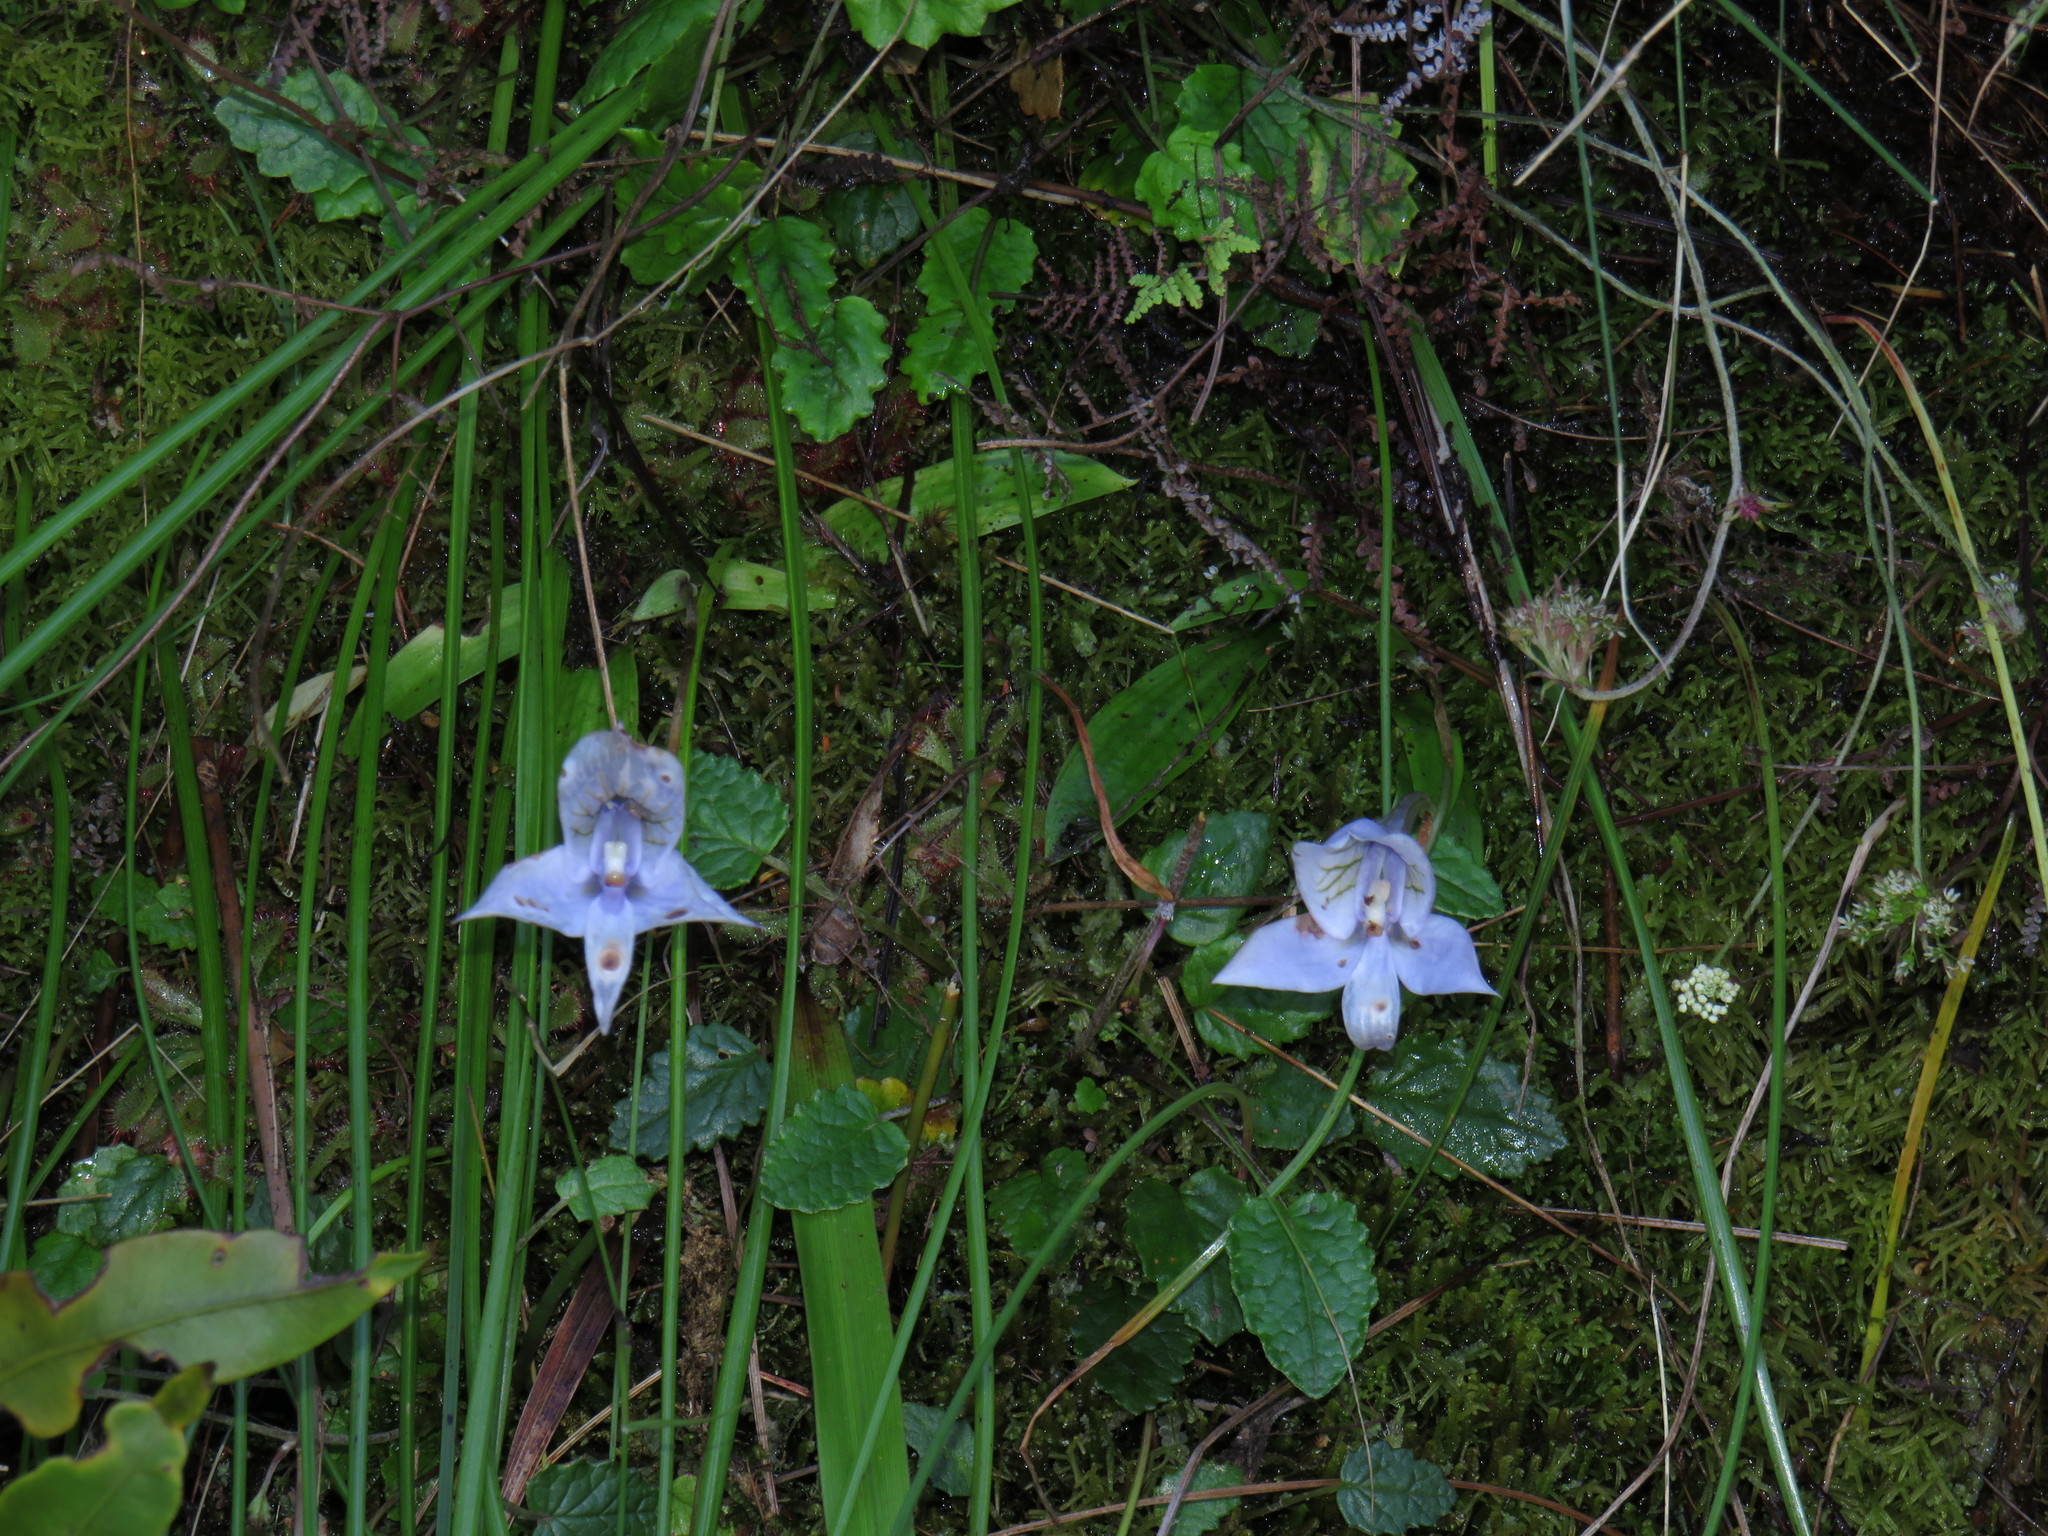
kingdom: Plantae
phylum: Tracheophyta
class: Liliopsida
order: Asparagales
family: Orchidaceae
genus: Disa
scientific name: Disa longicornu
